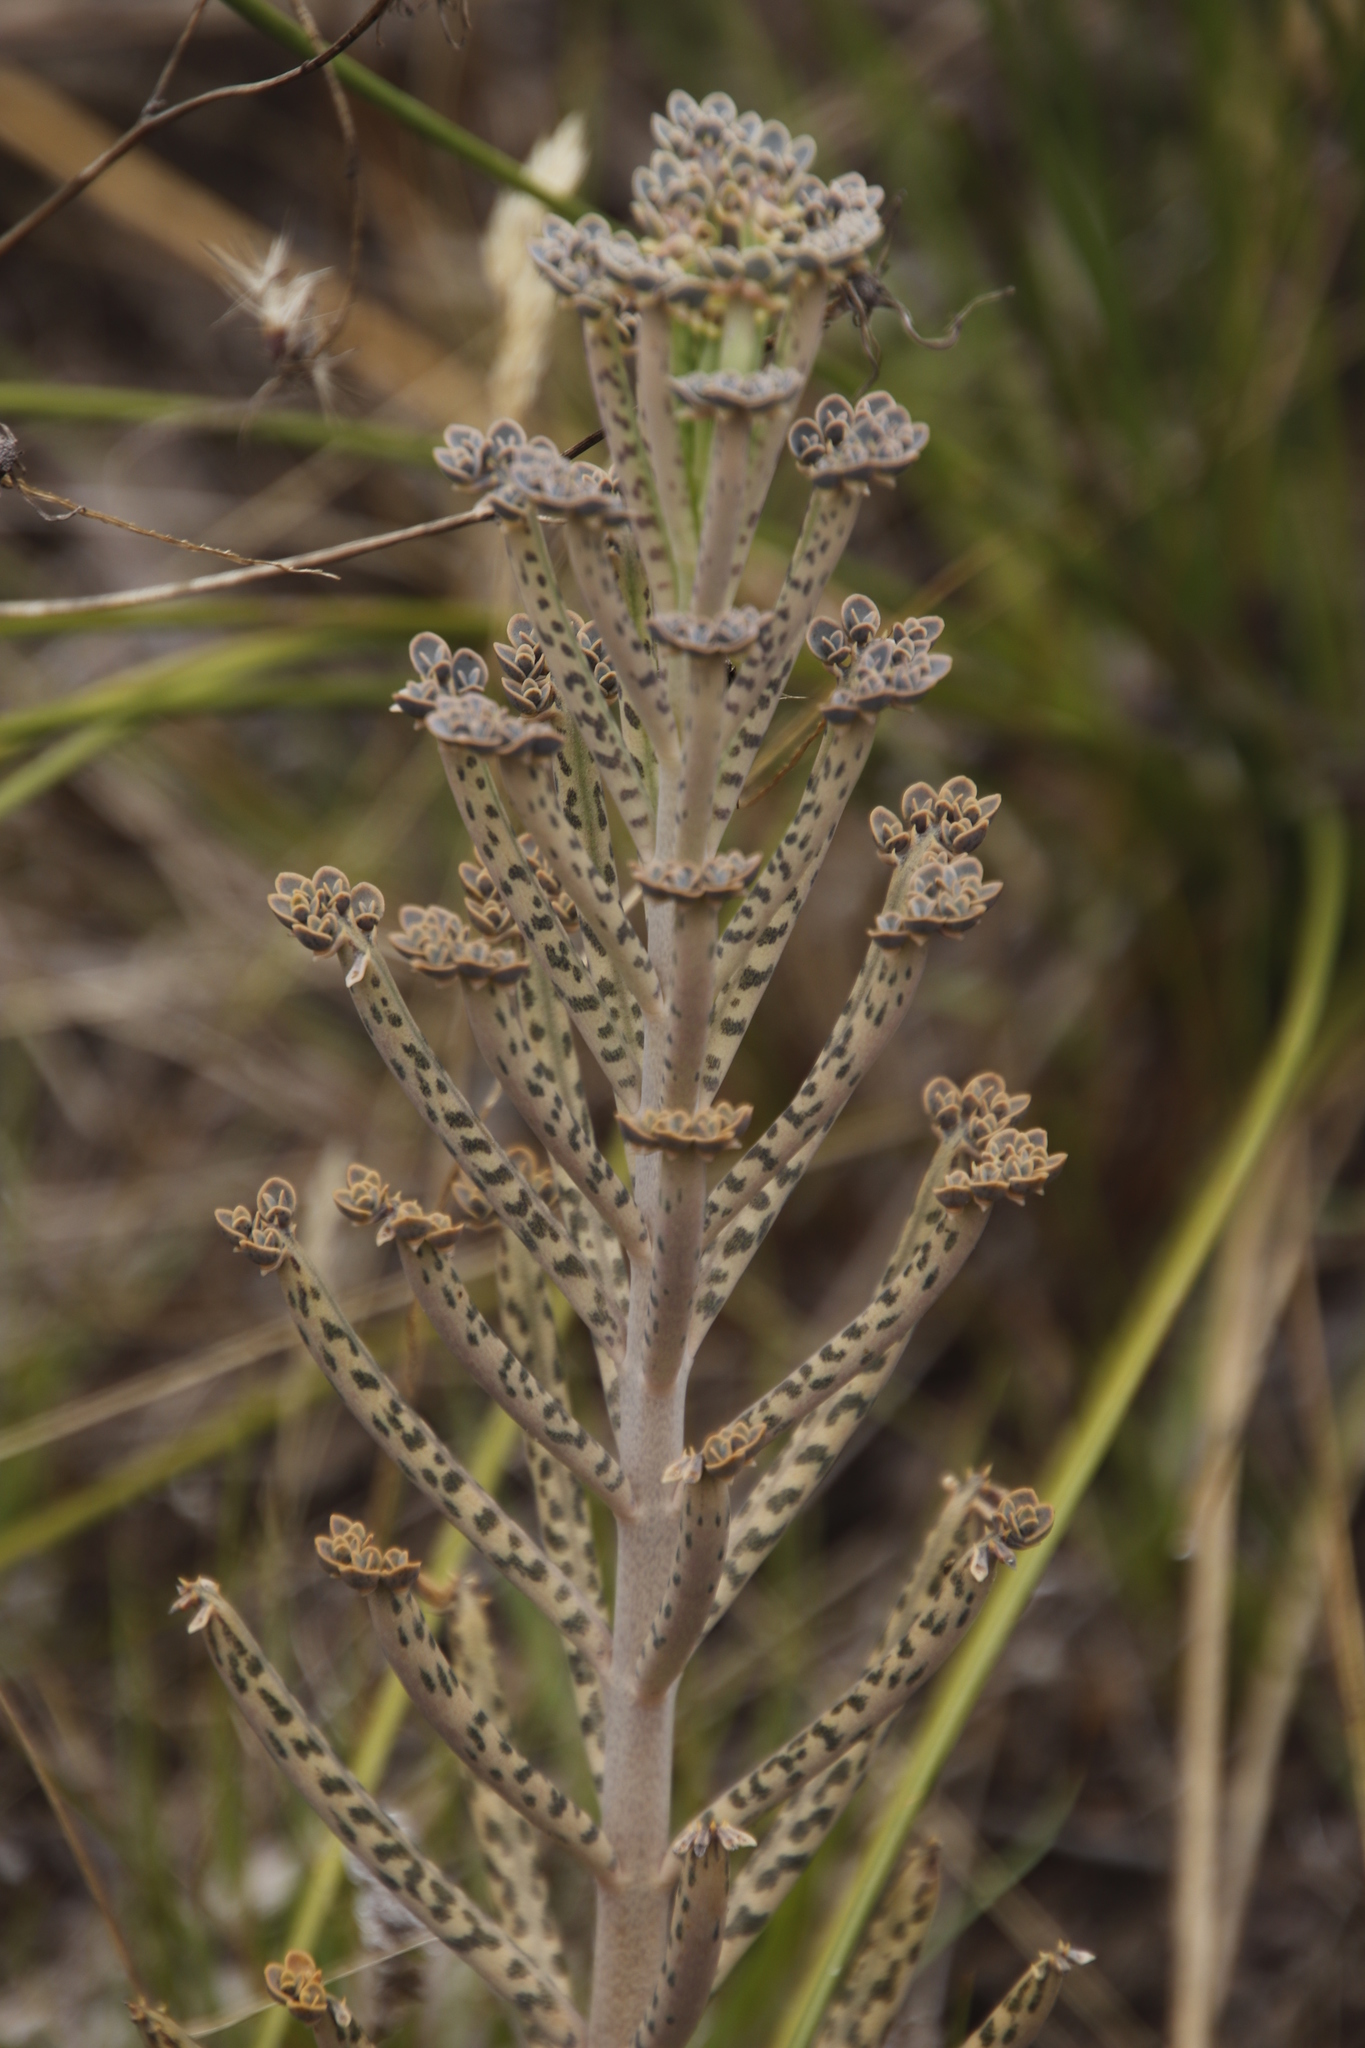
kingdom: Plantae
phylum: Tracheophyta
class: Magnoliopsida
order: Saxifragales
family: Crassulaceae
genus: Kalanchoe
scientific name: Kalanchoe delagoensis
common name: Chandelier plant
